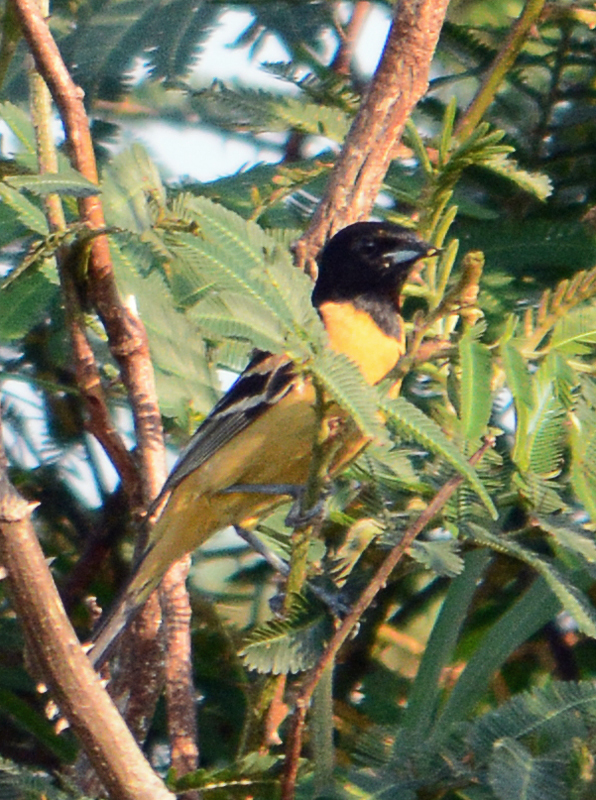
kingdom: Animalia
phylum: Chordata
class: Aves
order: Passeriformes
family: Icteridae
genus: Icterus
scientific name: Icterus galbula
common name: Baltimore oriole
